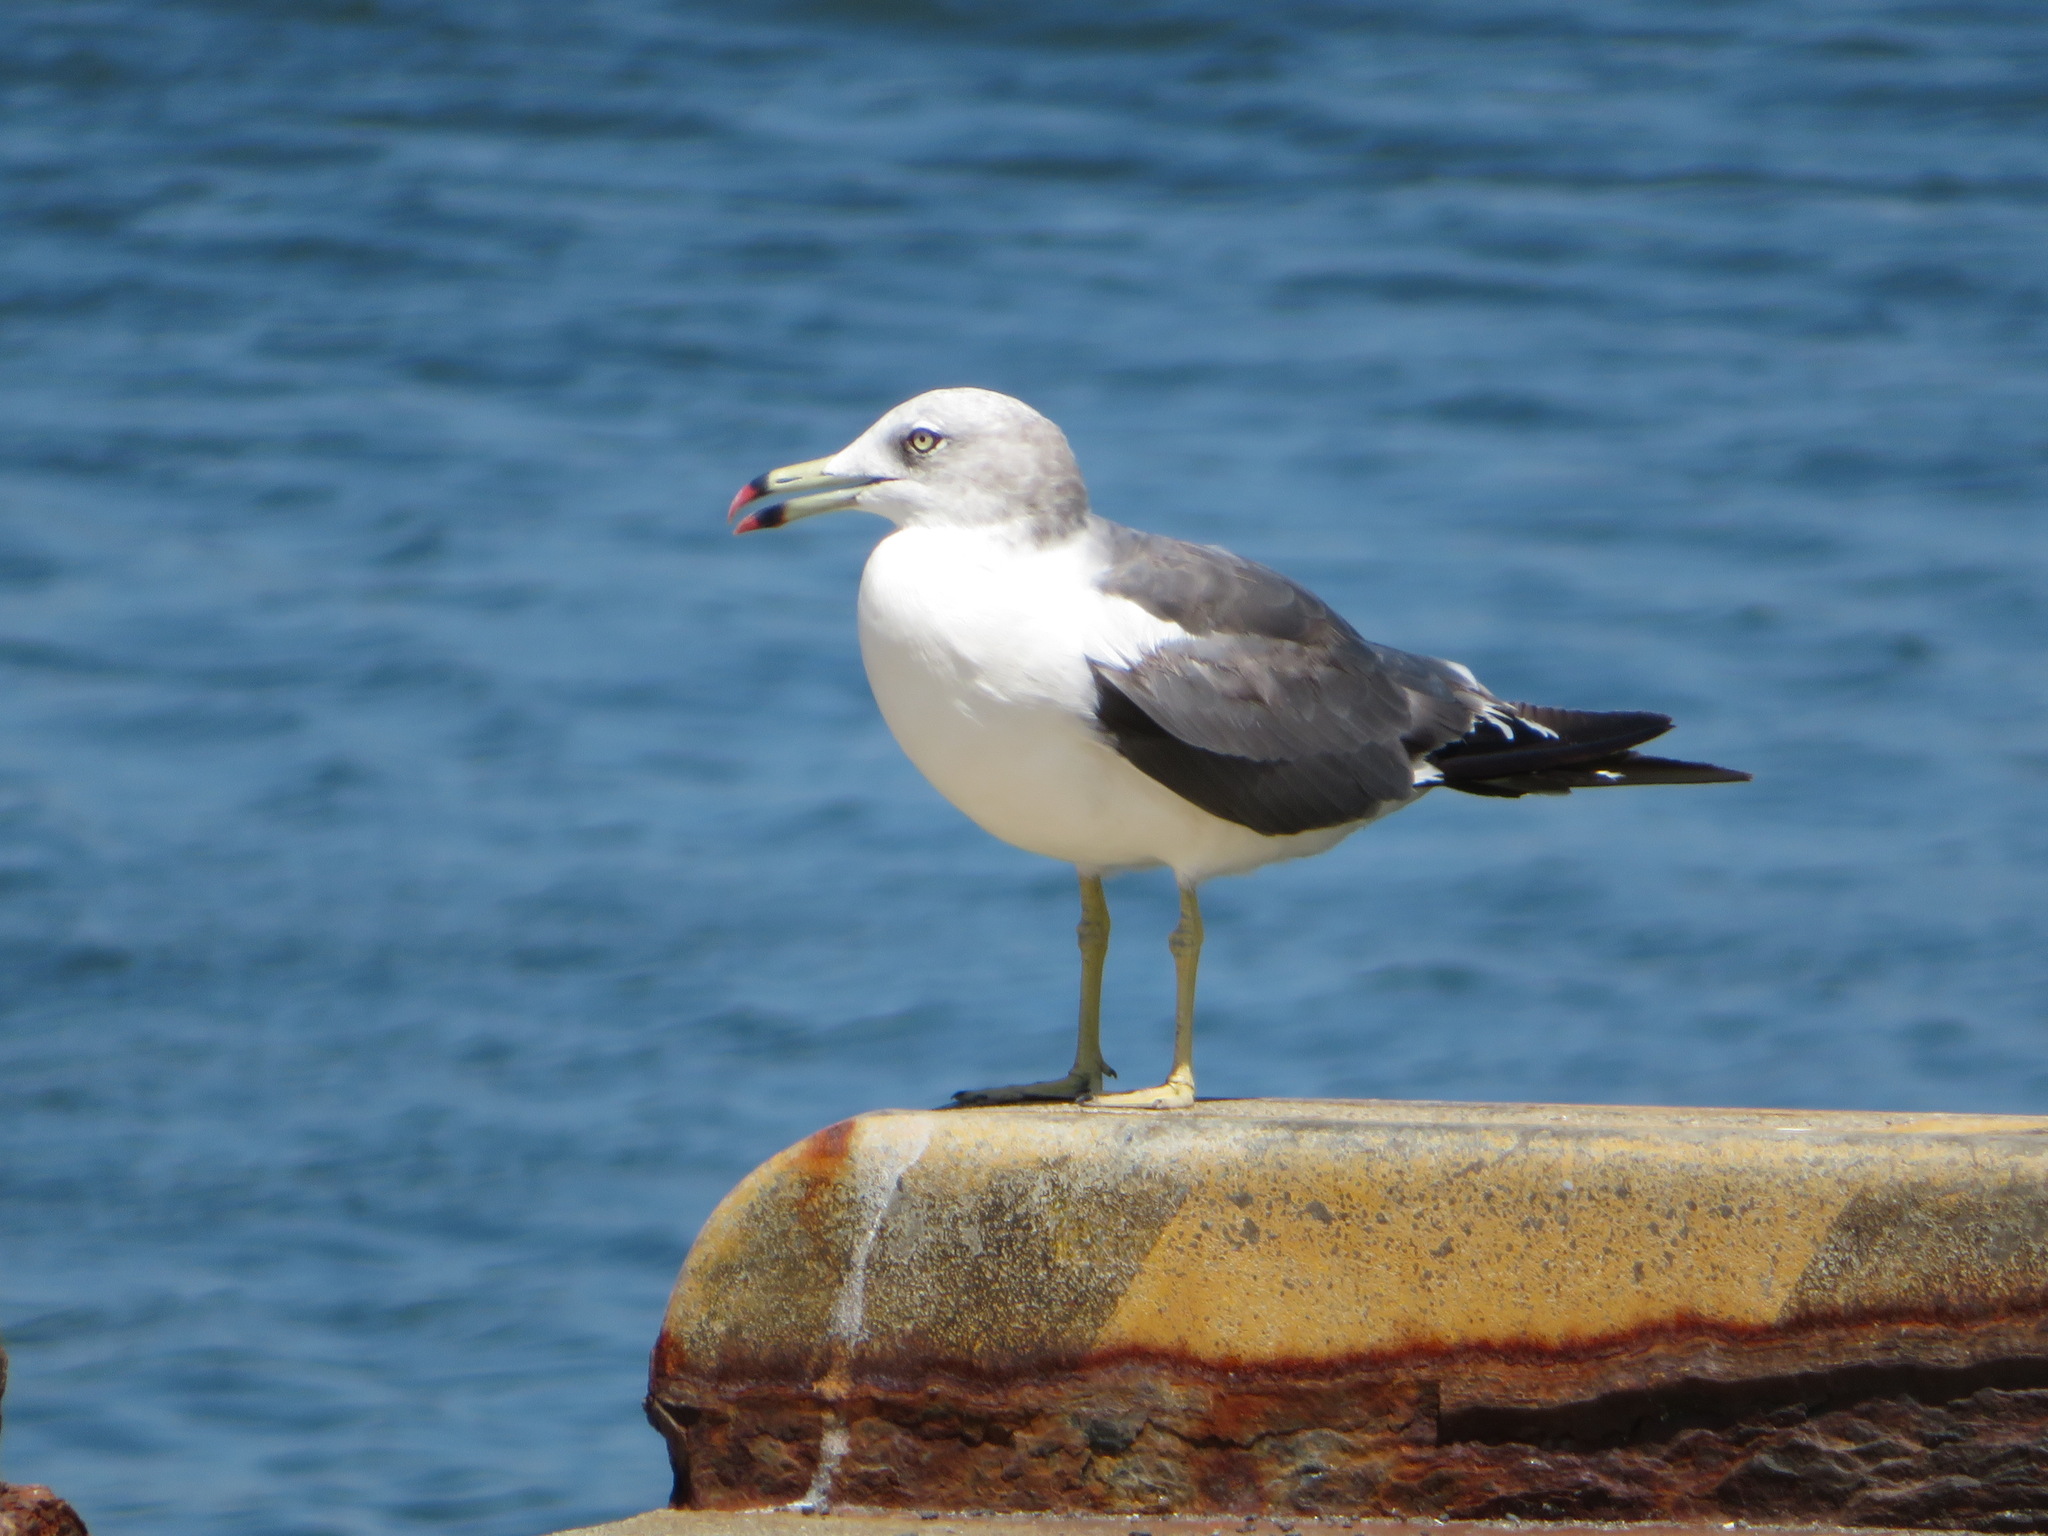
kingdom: Animalia
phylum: Chordata
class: Aves
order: Charadriiformes
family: Laridae
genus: Larus
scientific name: Larus crassirostris
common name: Black-tailed gull
